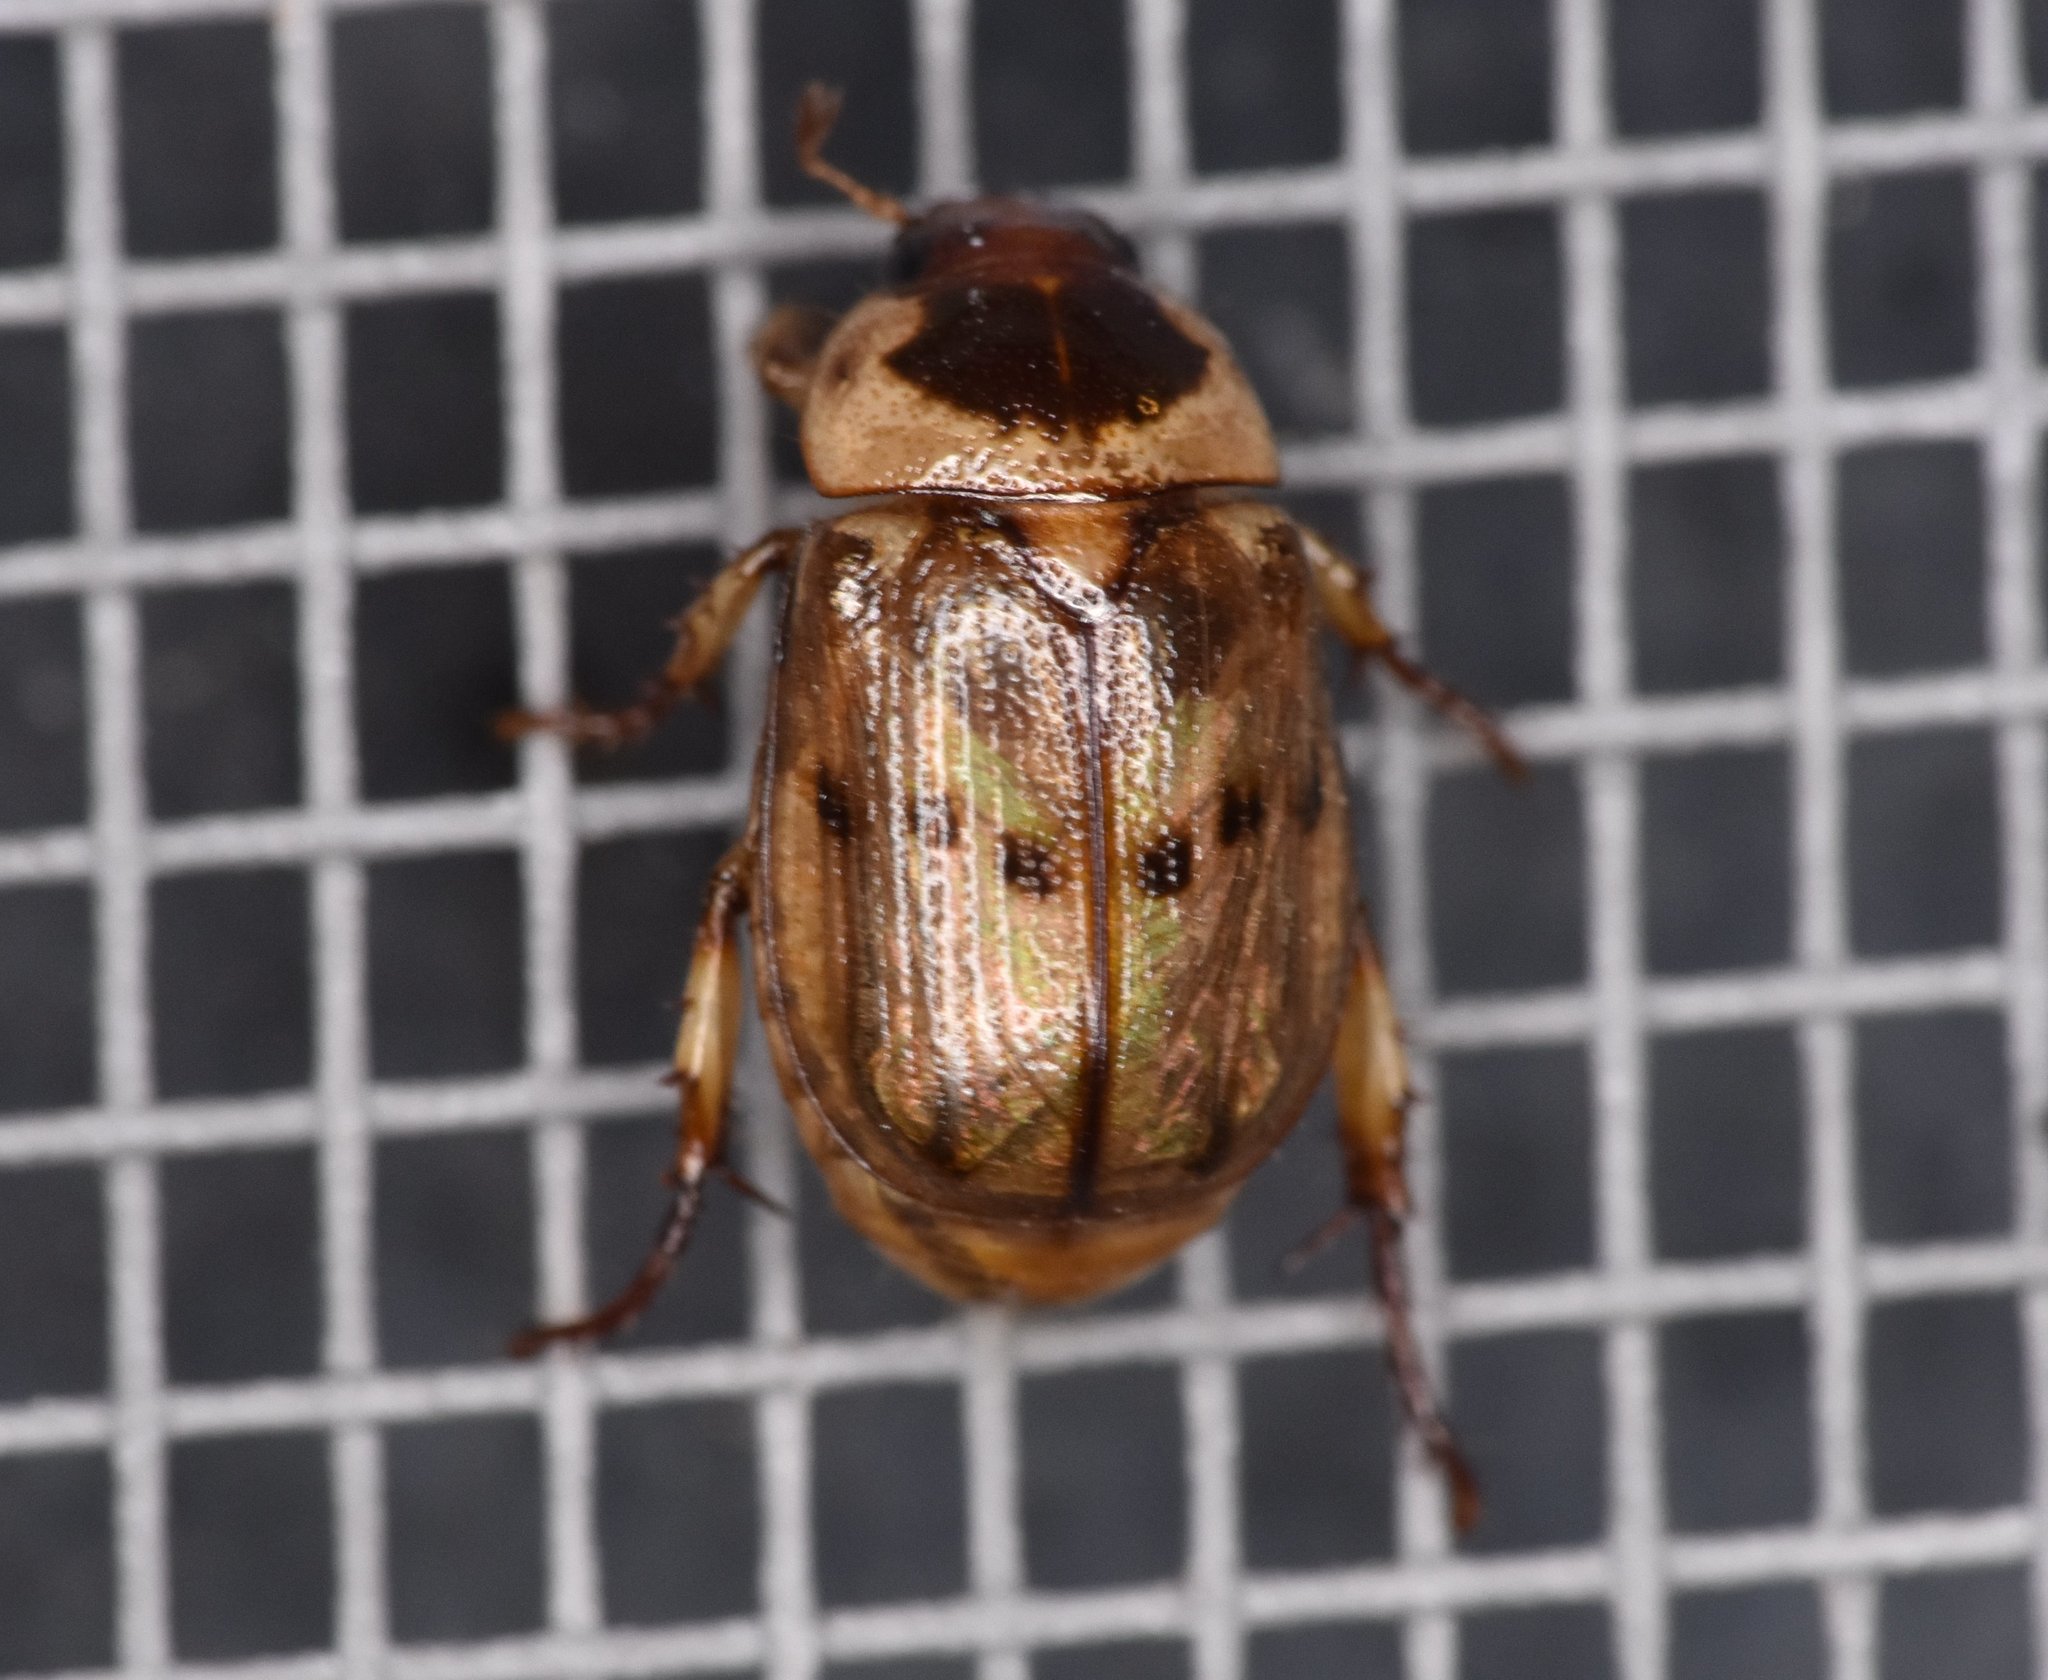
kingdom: Animalia
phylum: Arthropoda
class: Insecta
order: Coleoptera
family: Scarabaeidae
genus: Anomala
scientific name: Anomala innuba
